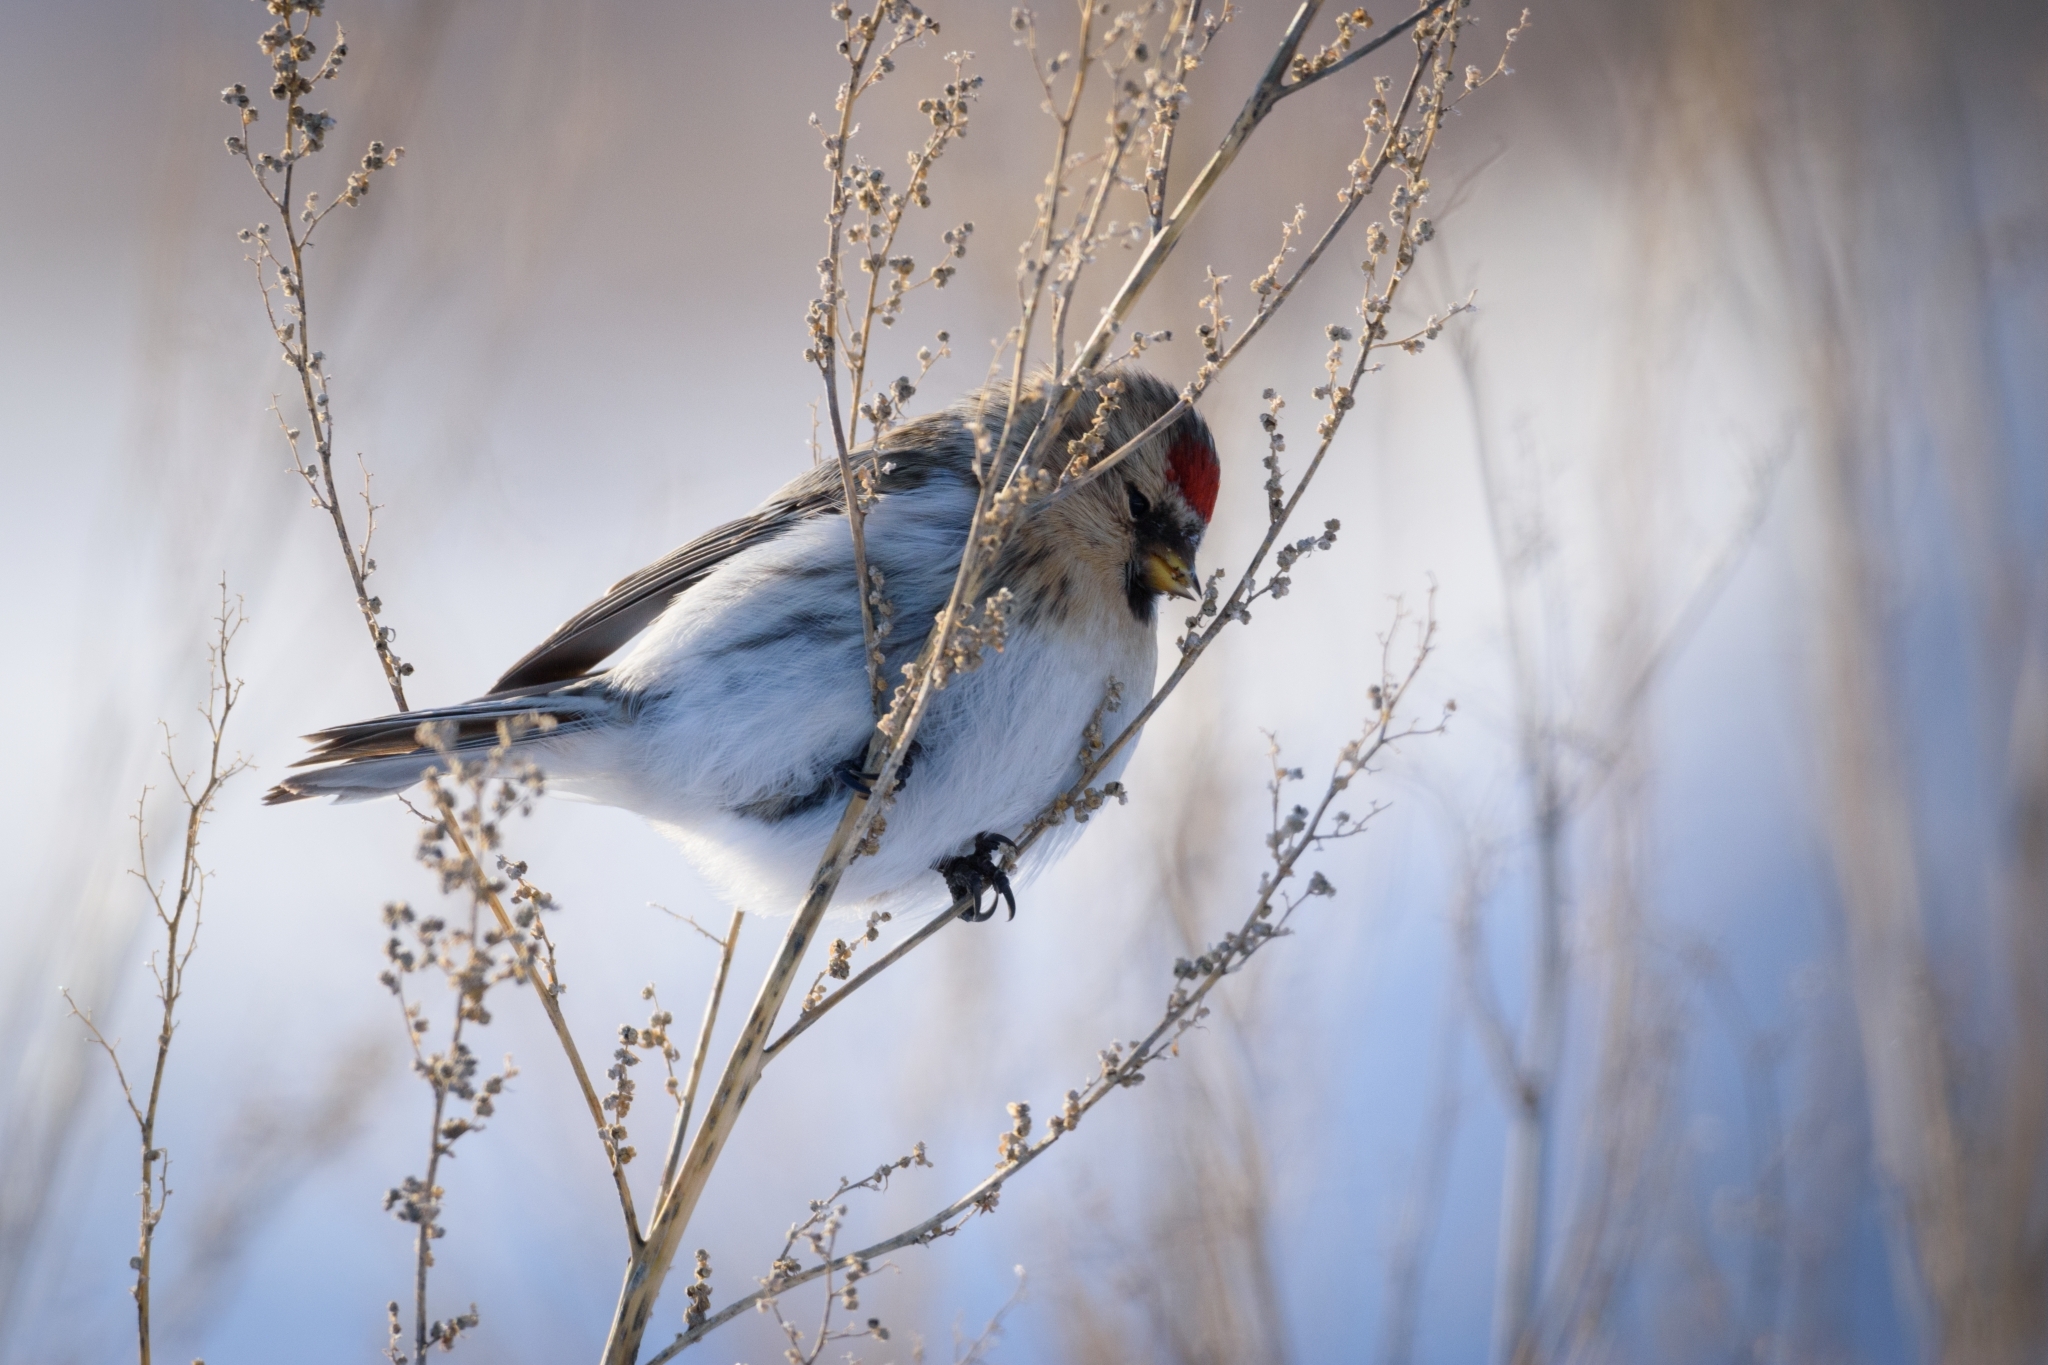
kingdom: Animalia
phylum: Chordata
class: Aves
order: Passeriformes
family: Fringillidae
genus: Acanthis
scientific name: Acanthis hornemanni
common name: Arctic redpoll
